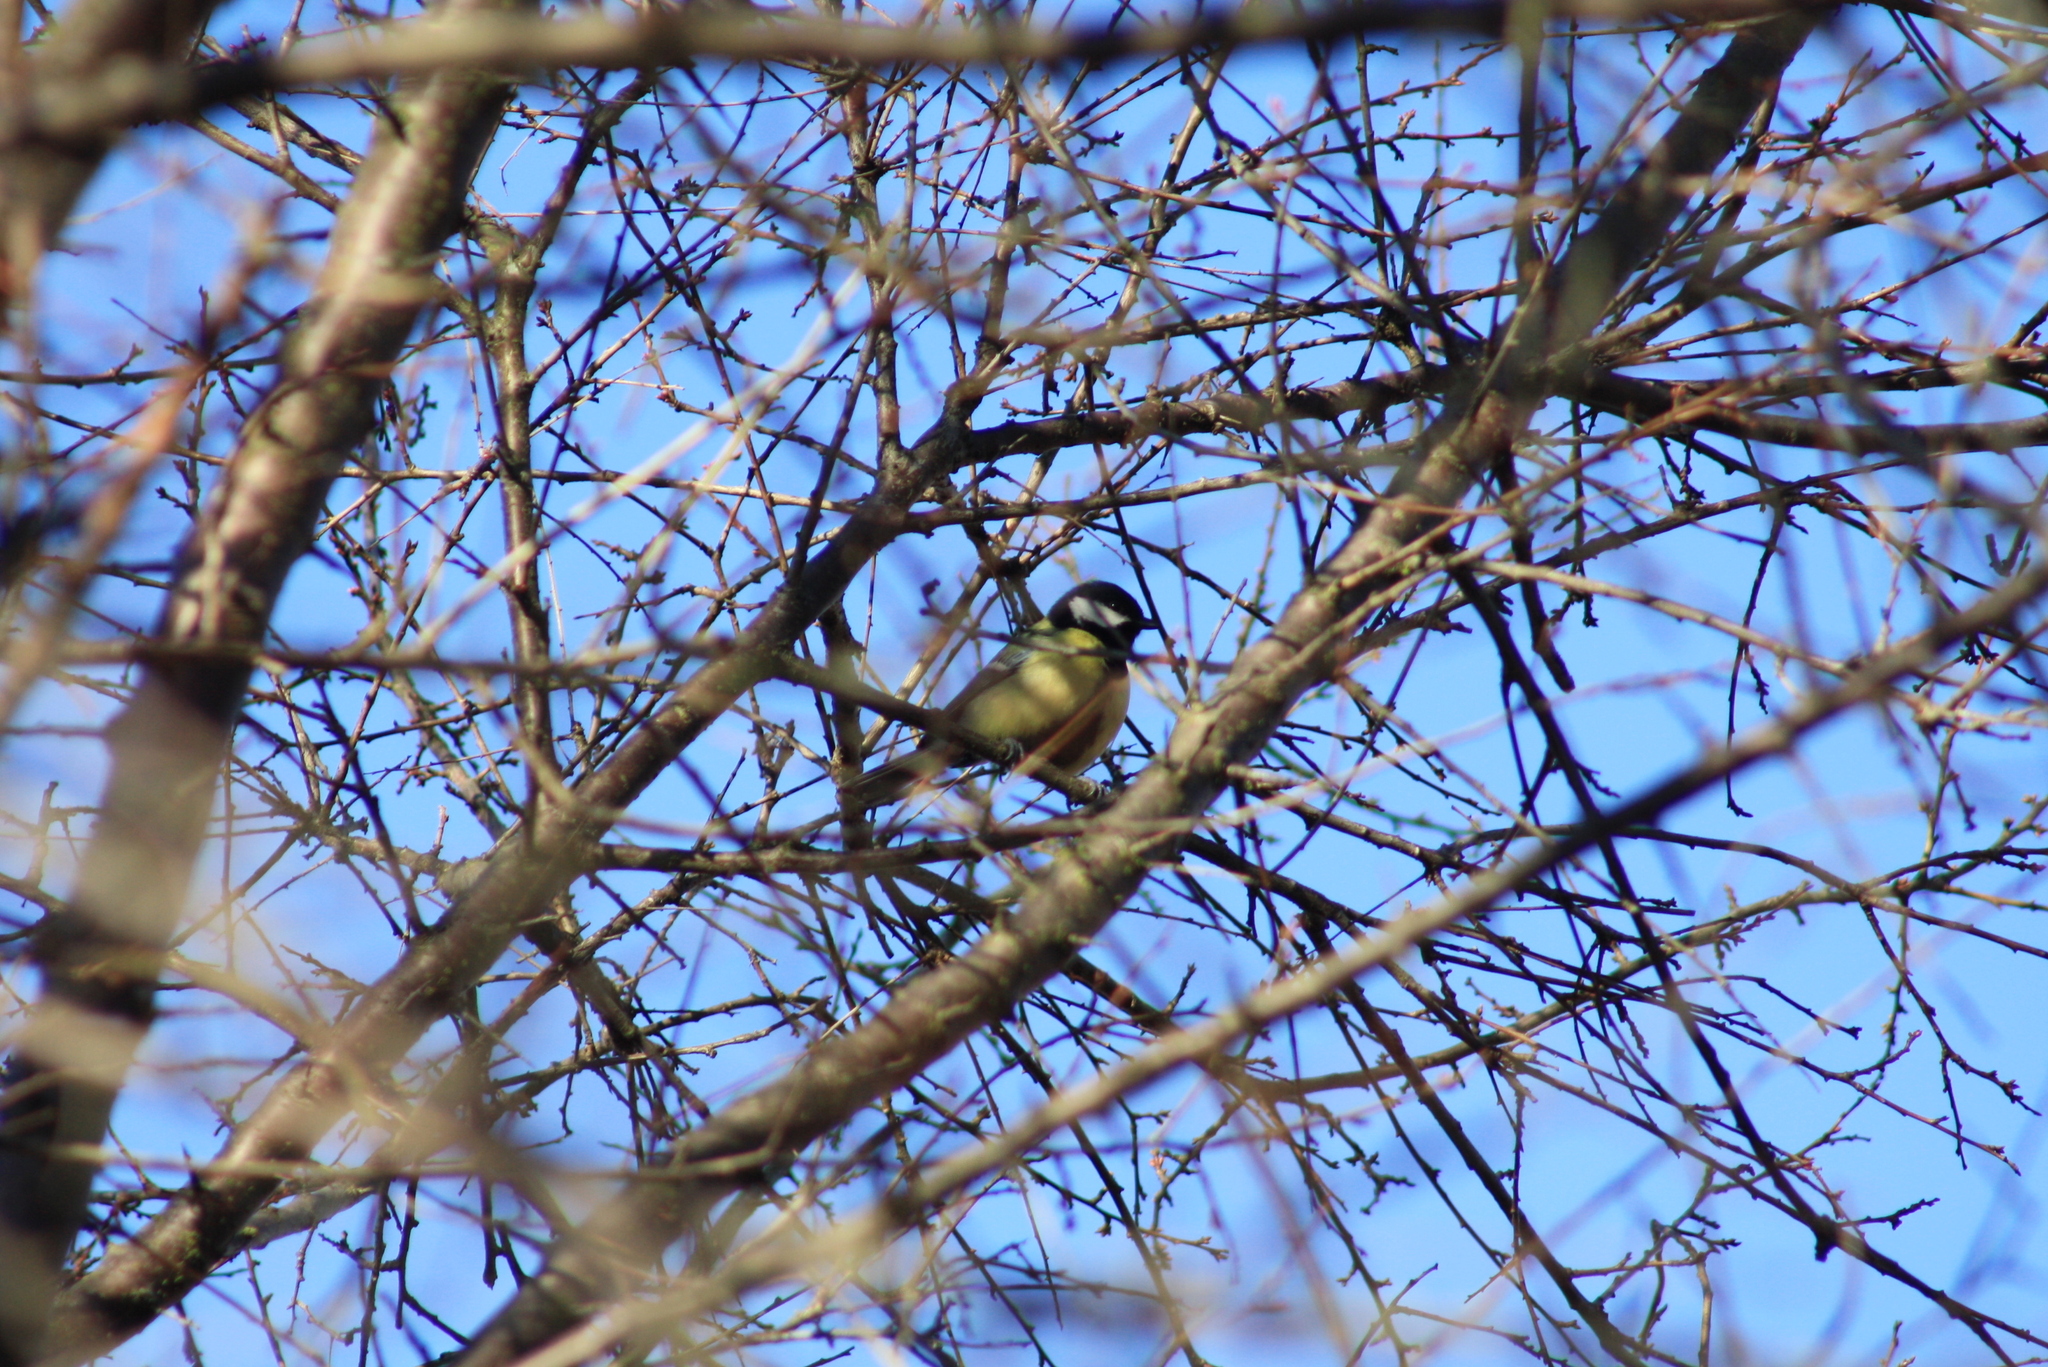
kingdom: Animalia
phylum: Chordata
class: Aves
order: Passeriformes
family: Paridae
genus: Parus
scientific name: Parus major
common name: Great tit
